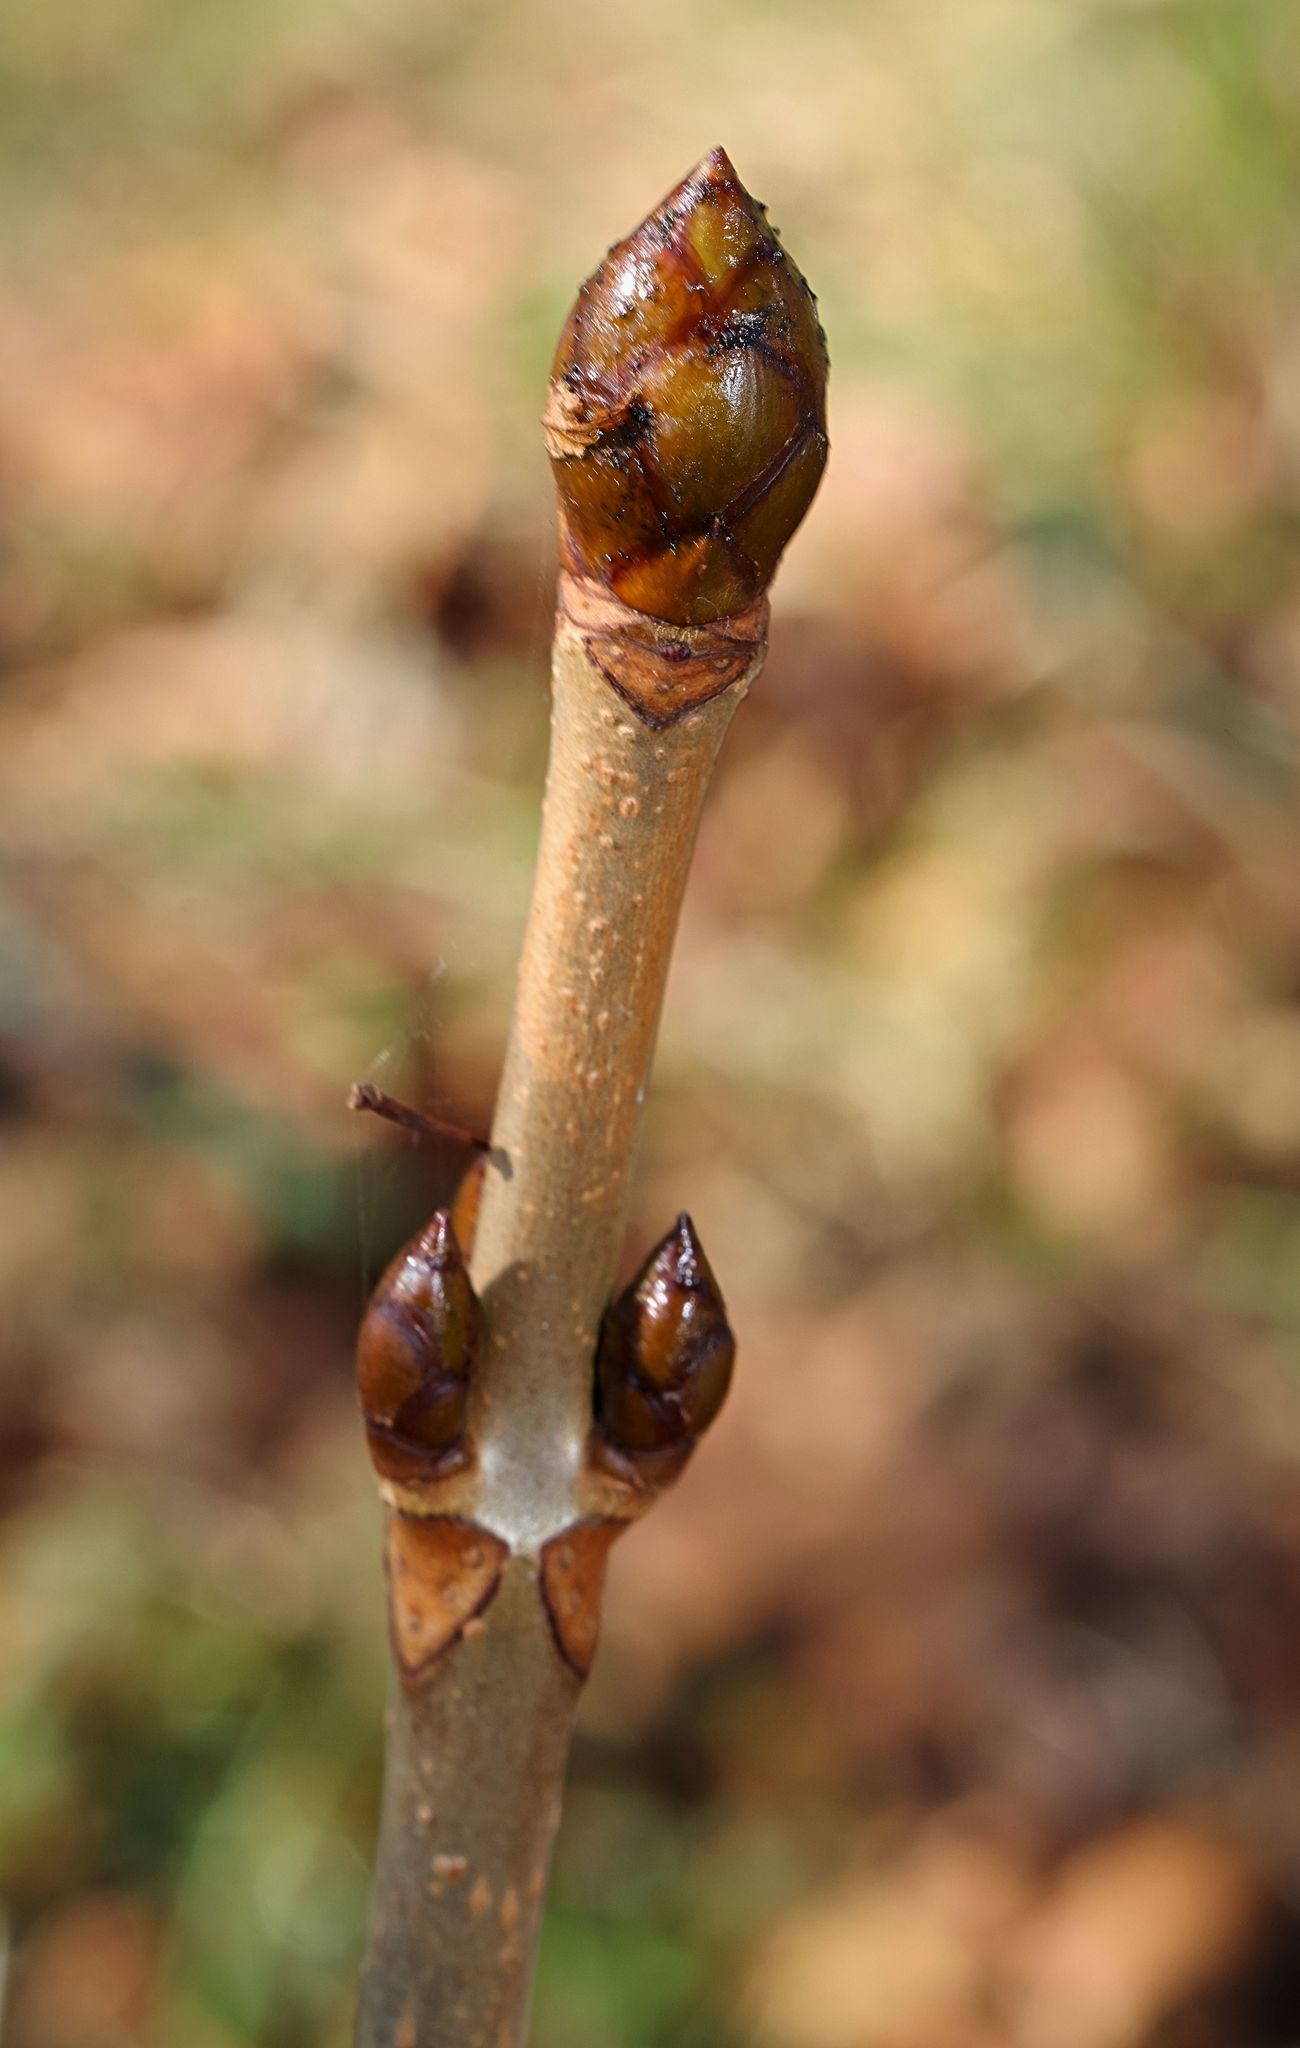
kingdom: Plantae
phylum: Tracheophyta
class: Magnoliopsida
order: Sapindales
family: Sapindaceae
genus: Aesculus
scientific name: Aesculus hippocastanum
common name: Horse-chestnut
